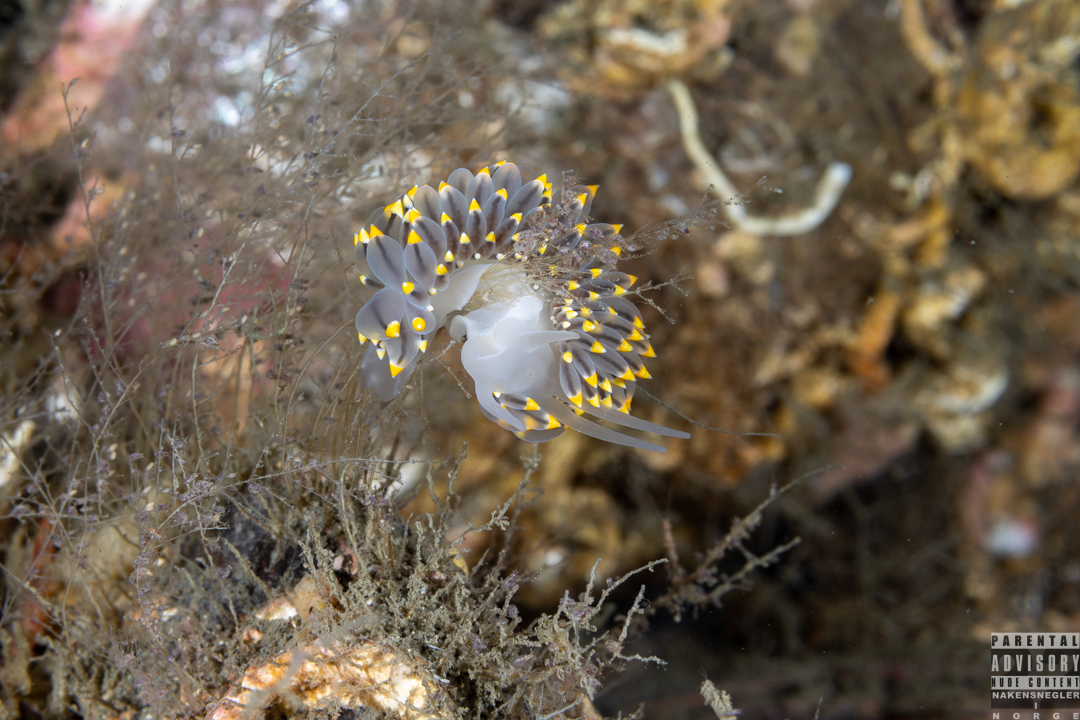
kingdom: Animalia
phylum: Mollusca
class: Gastropoda
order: Nudibranchia
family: Eubranchidae
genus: Eubranchus
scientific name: Eubranchus tricolor
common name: Painted balloon aeolis
